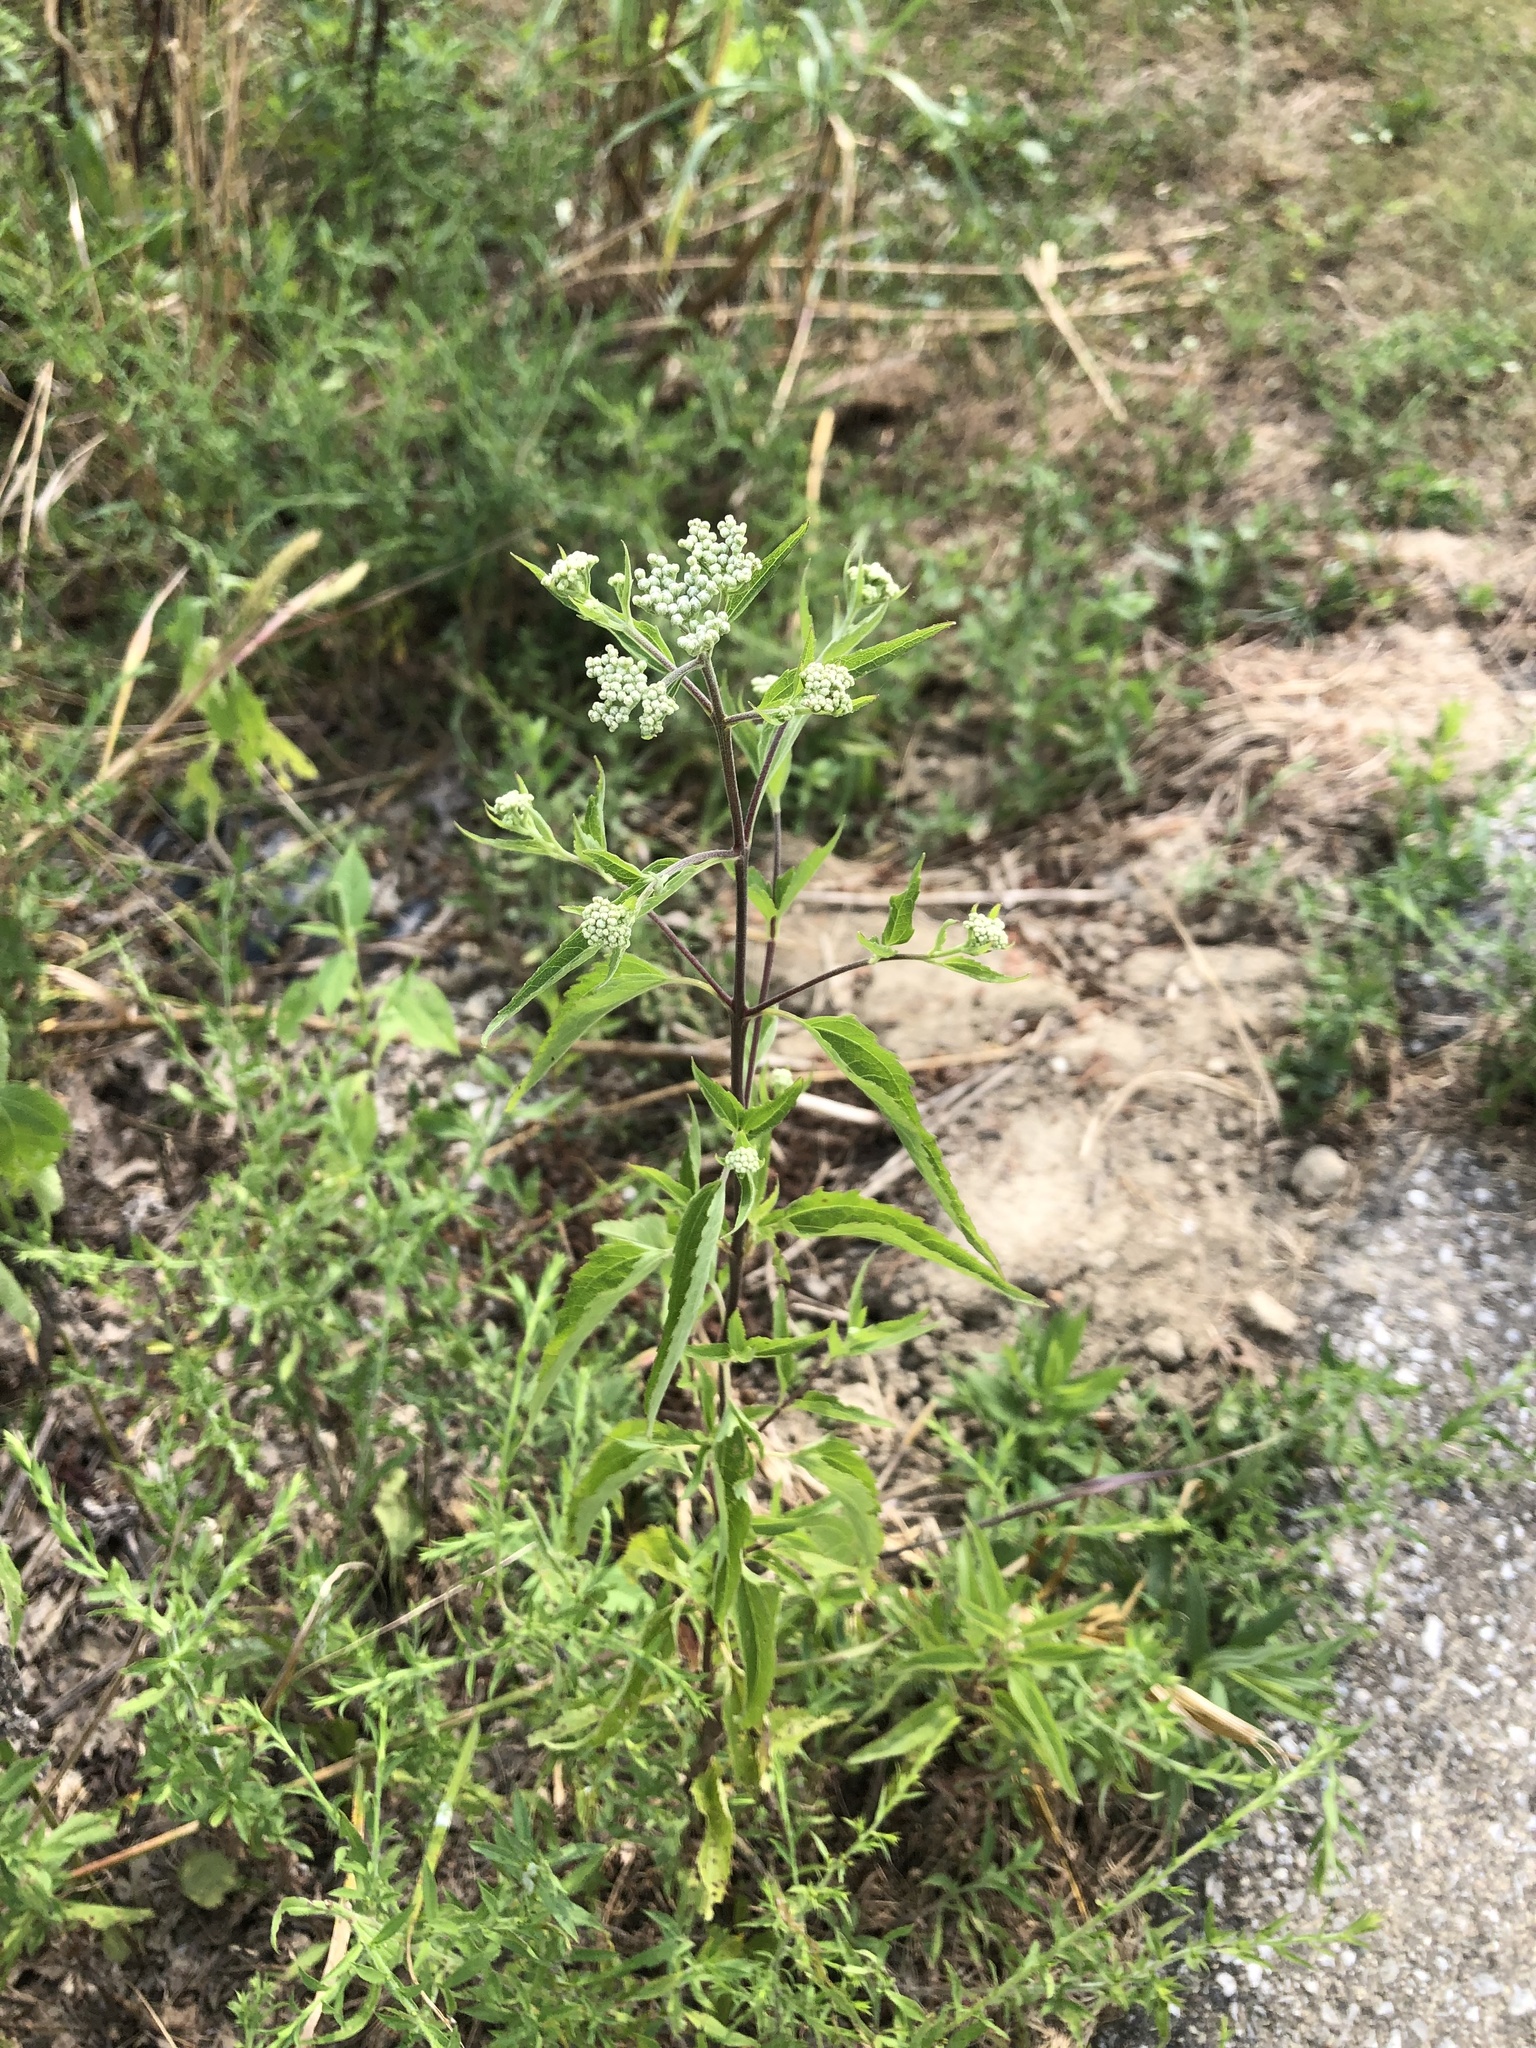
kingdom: Plantae
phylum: Tracheophyta
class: Magnoliopsida
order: Asterales
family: Asteraceae
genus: Eupatorium
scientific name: Eupatorium serotinum
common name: Late boneset
